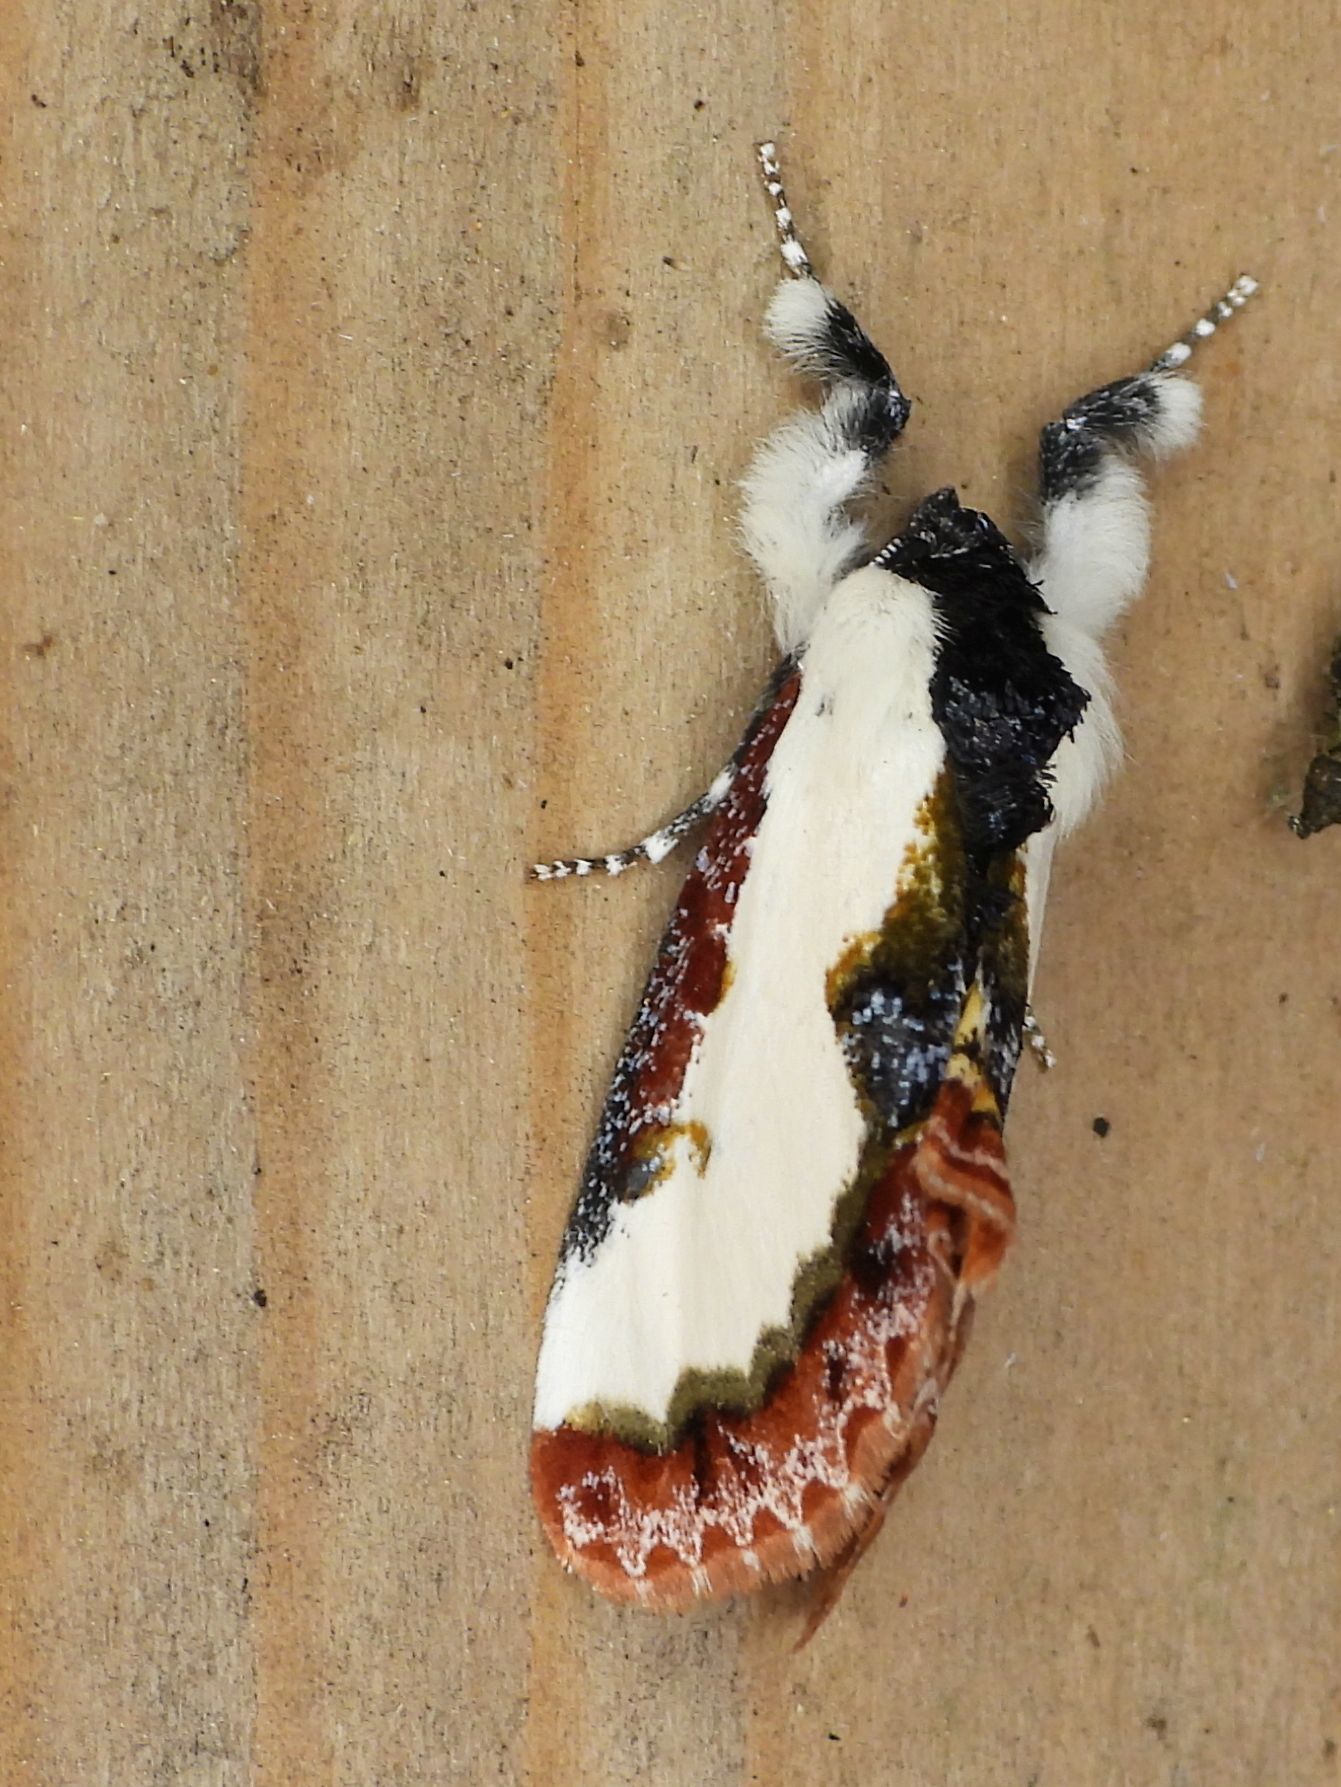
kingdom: Animalia
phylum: Arthropoda
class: Insecta
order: Lepidoptera
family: Noctuidae
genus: Eudryas
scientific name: Eudryas unio
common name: Pearly wood-nymph
